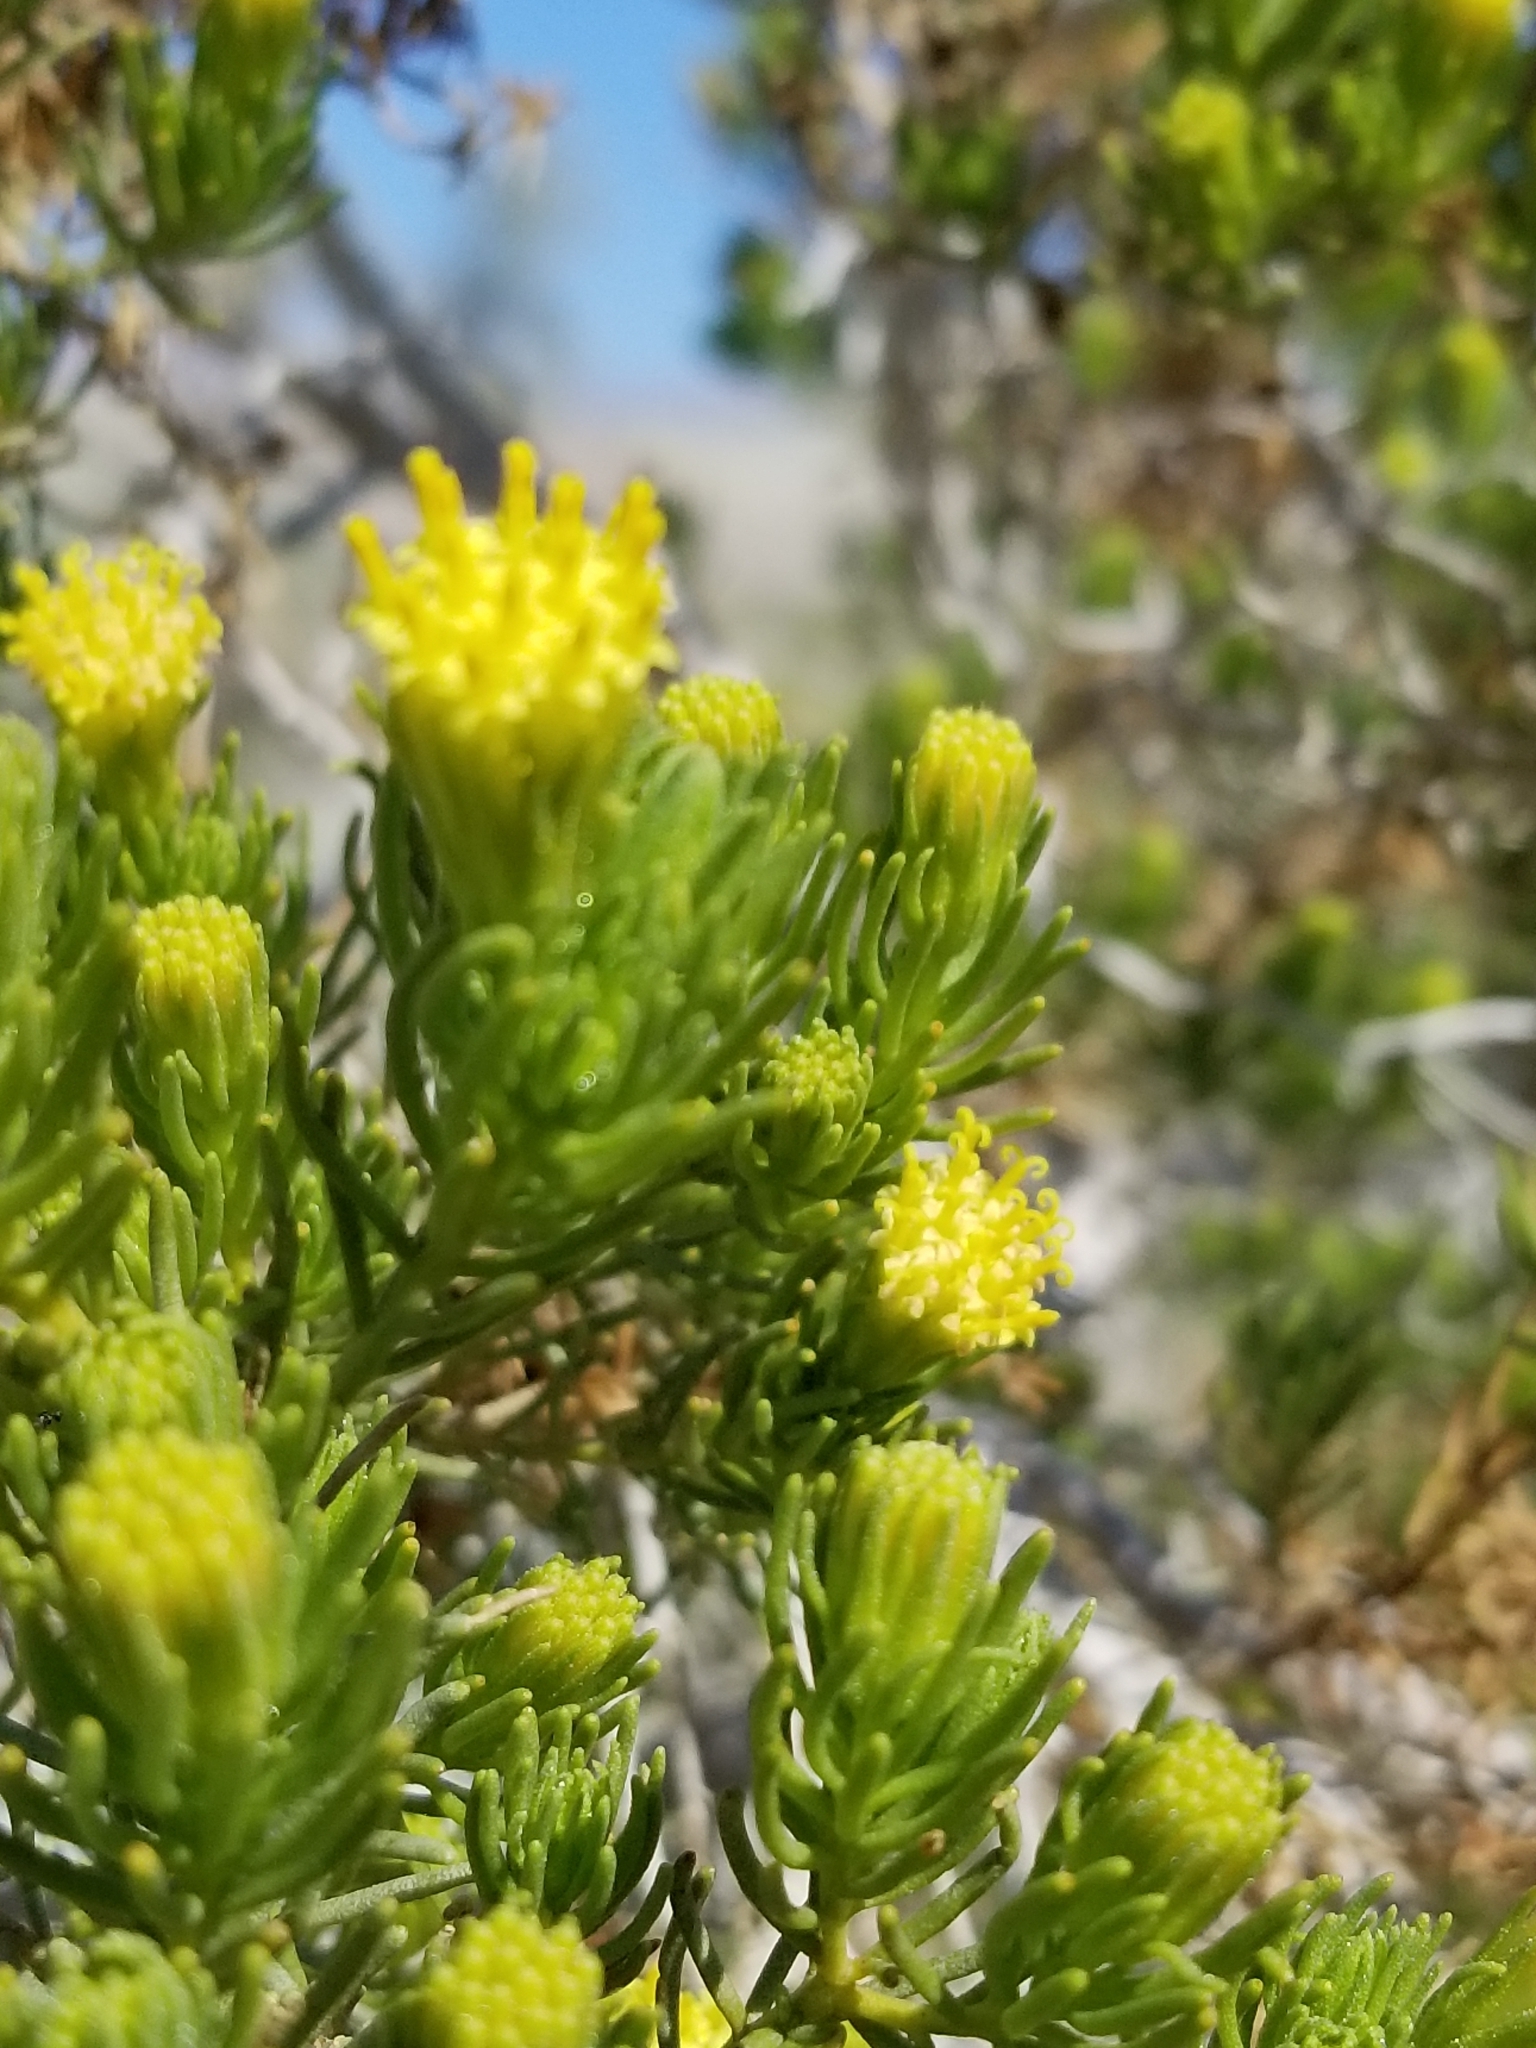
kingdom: Plantae
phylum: Tracheophyta
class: Magnoliopsida
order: Asterales
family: Asteraceae
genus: Peucephyllum
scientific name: Peucephyllum schottii
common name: Pygmy-cedar
